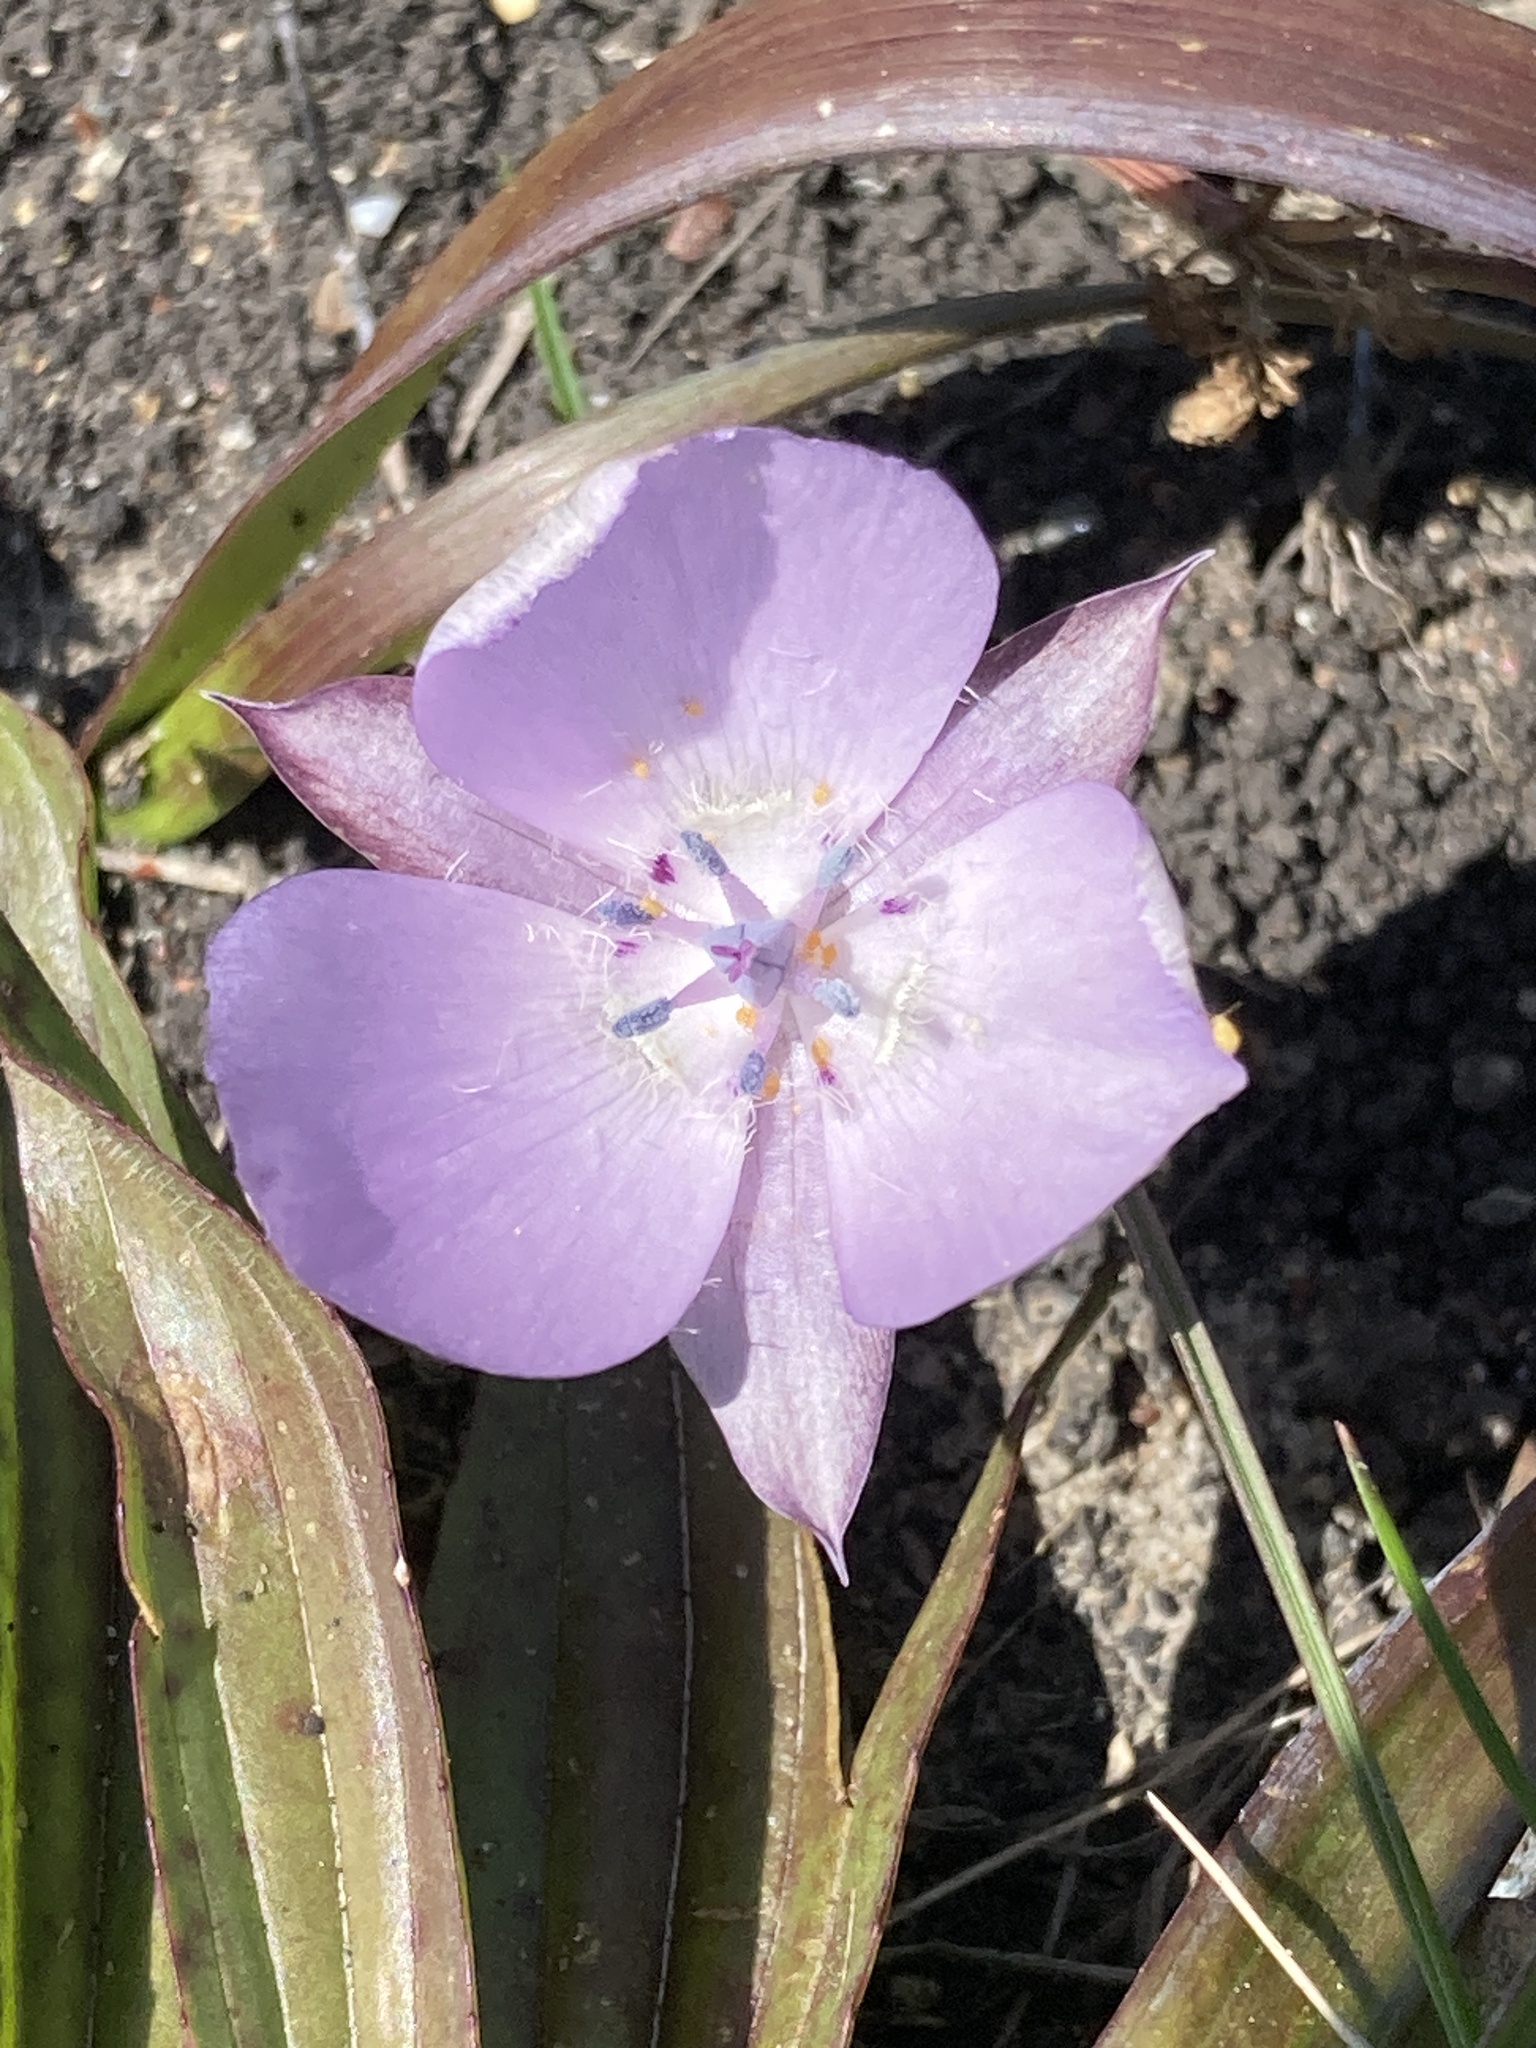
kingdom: Plantae
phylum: Tracheophyta
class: Liliopsida
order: Liliales
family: Liliaceae
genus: Calochortus
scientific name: Calochortus uniflorus
